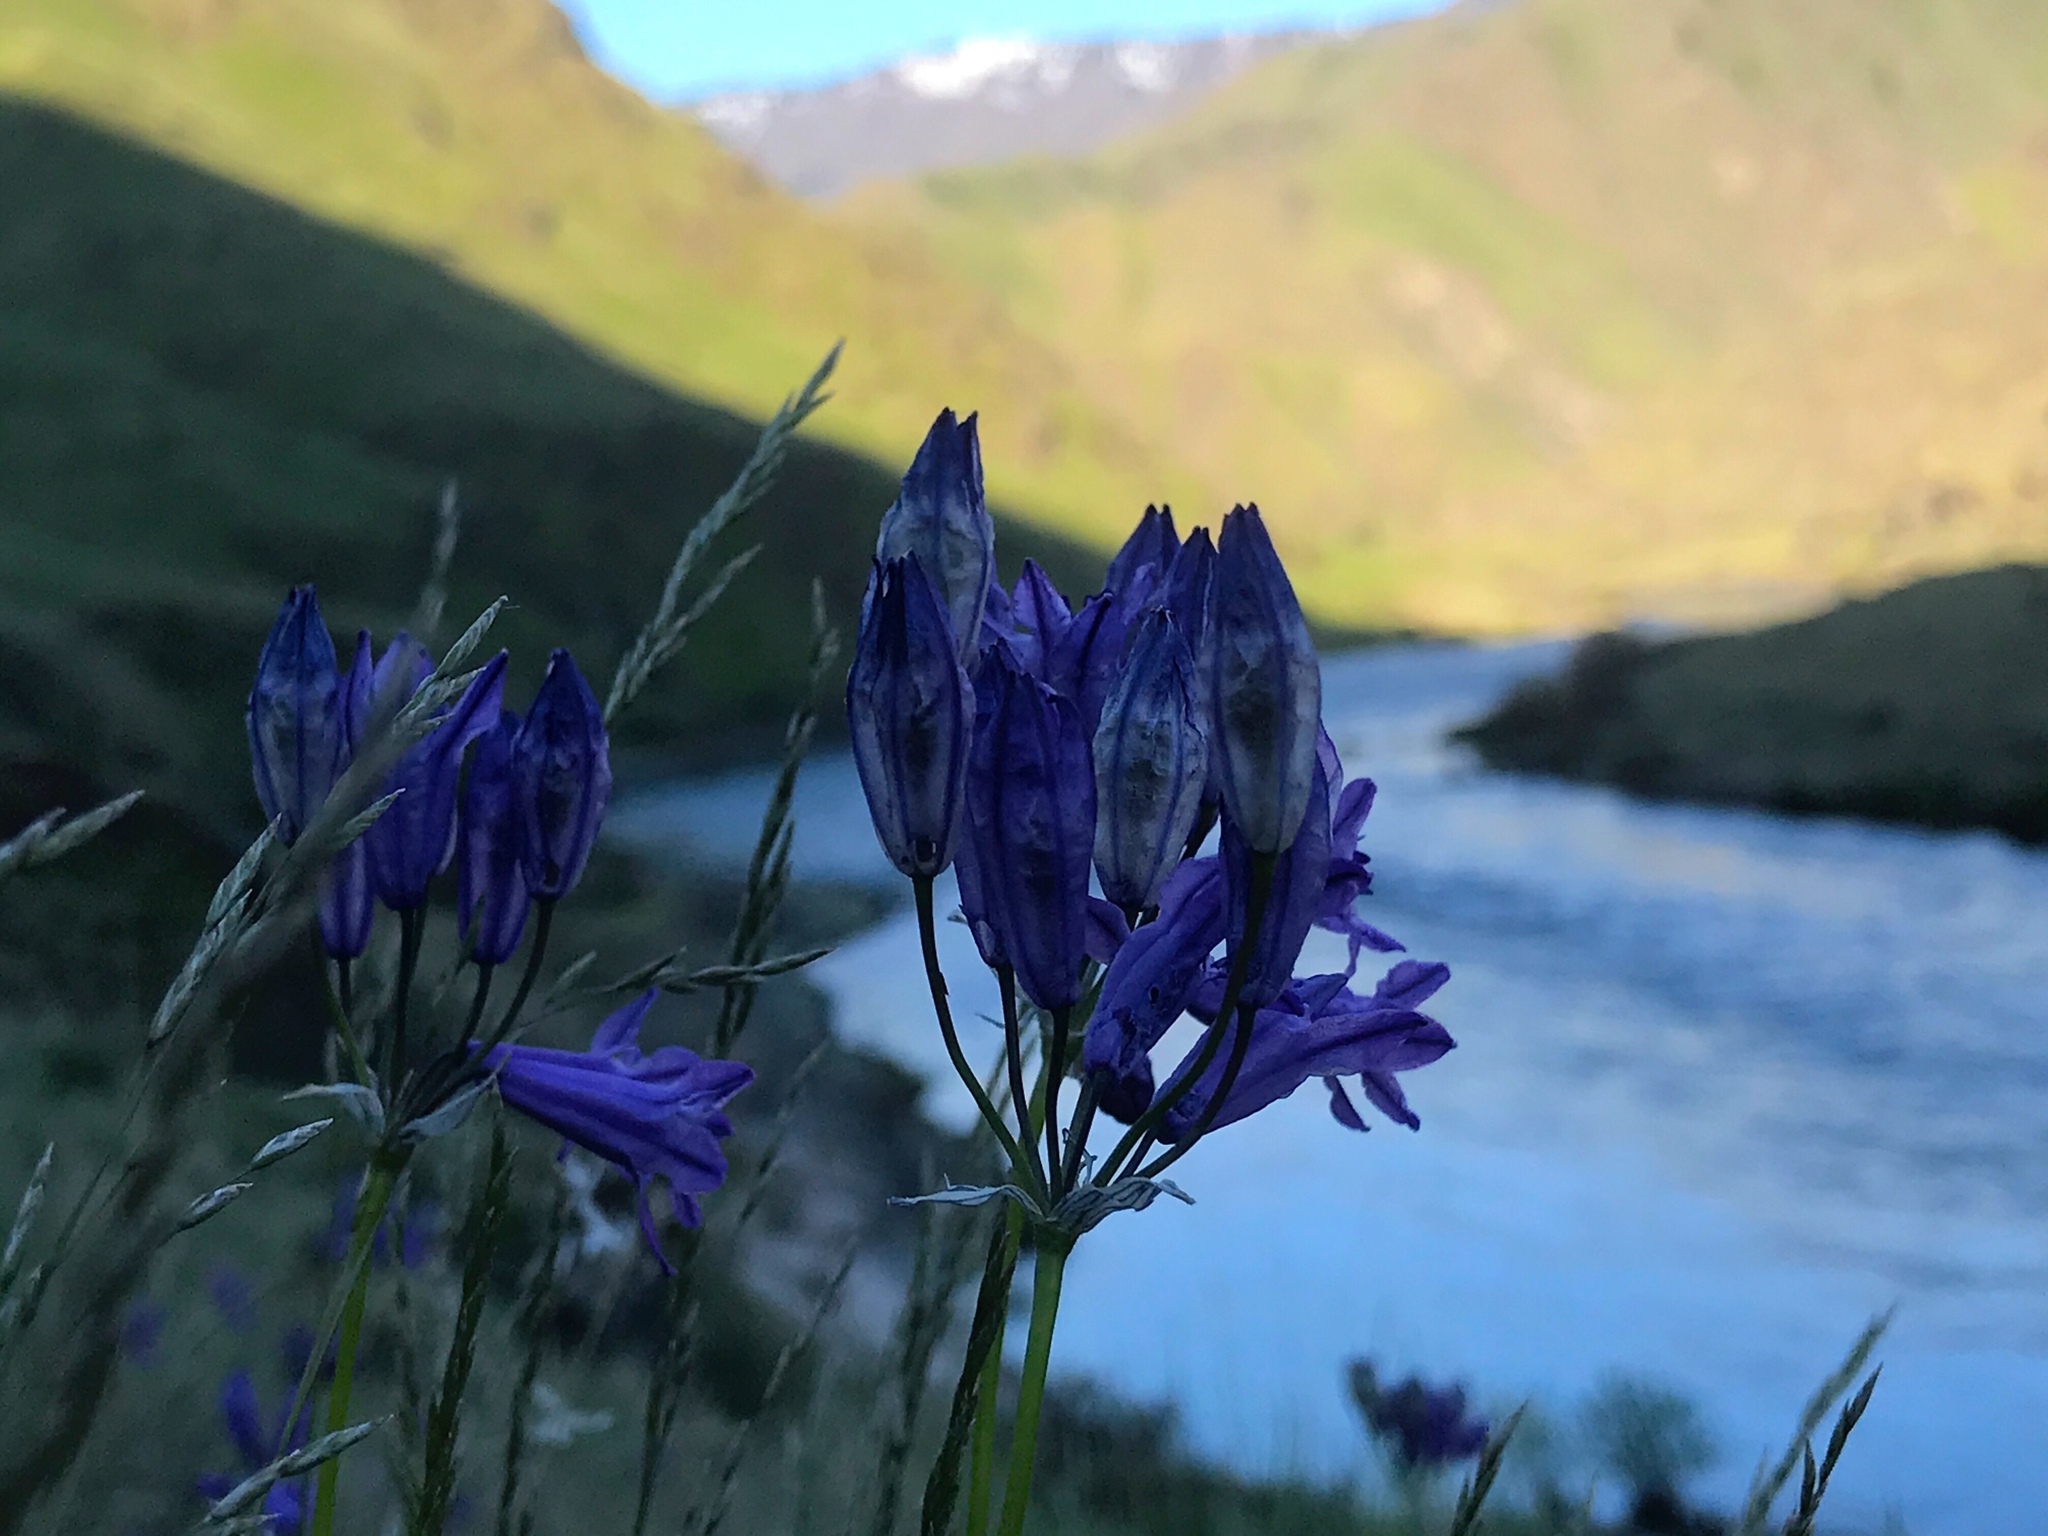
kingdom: Plantae
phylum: Tracheophyta
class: Liliopsida
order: Asparagales
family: Asparagaceae
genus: Triteleia
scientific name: Triteleia grandiflora
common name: Wild hyacinth
